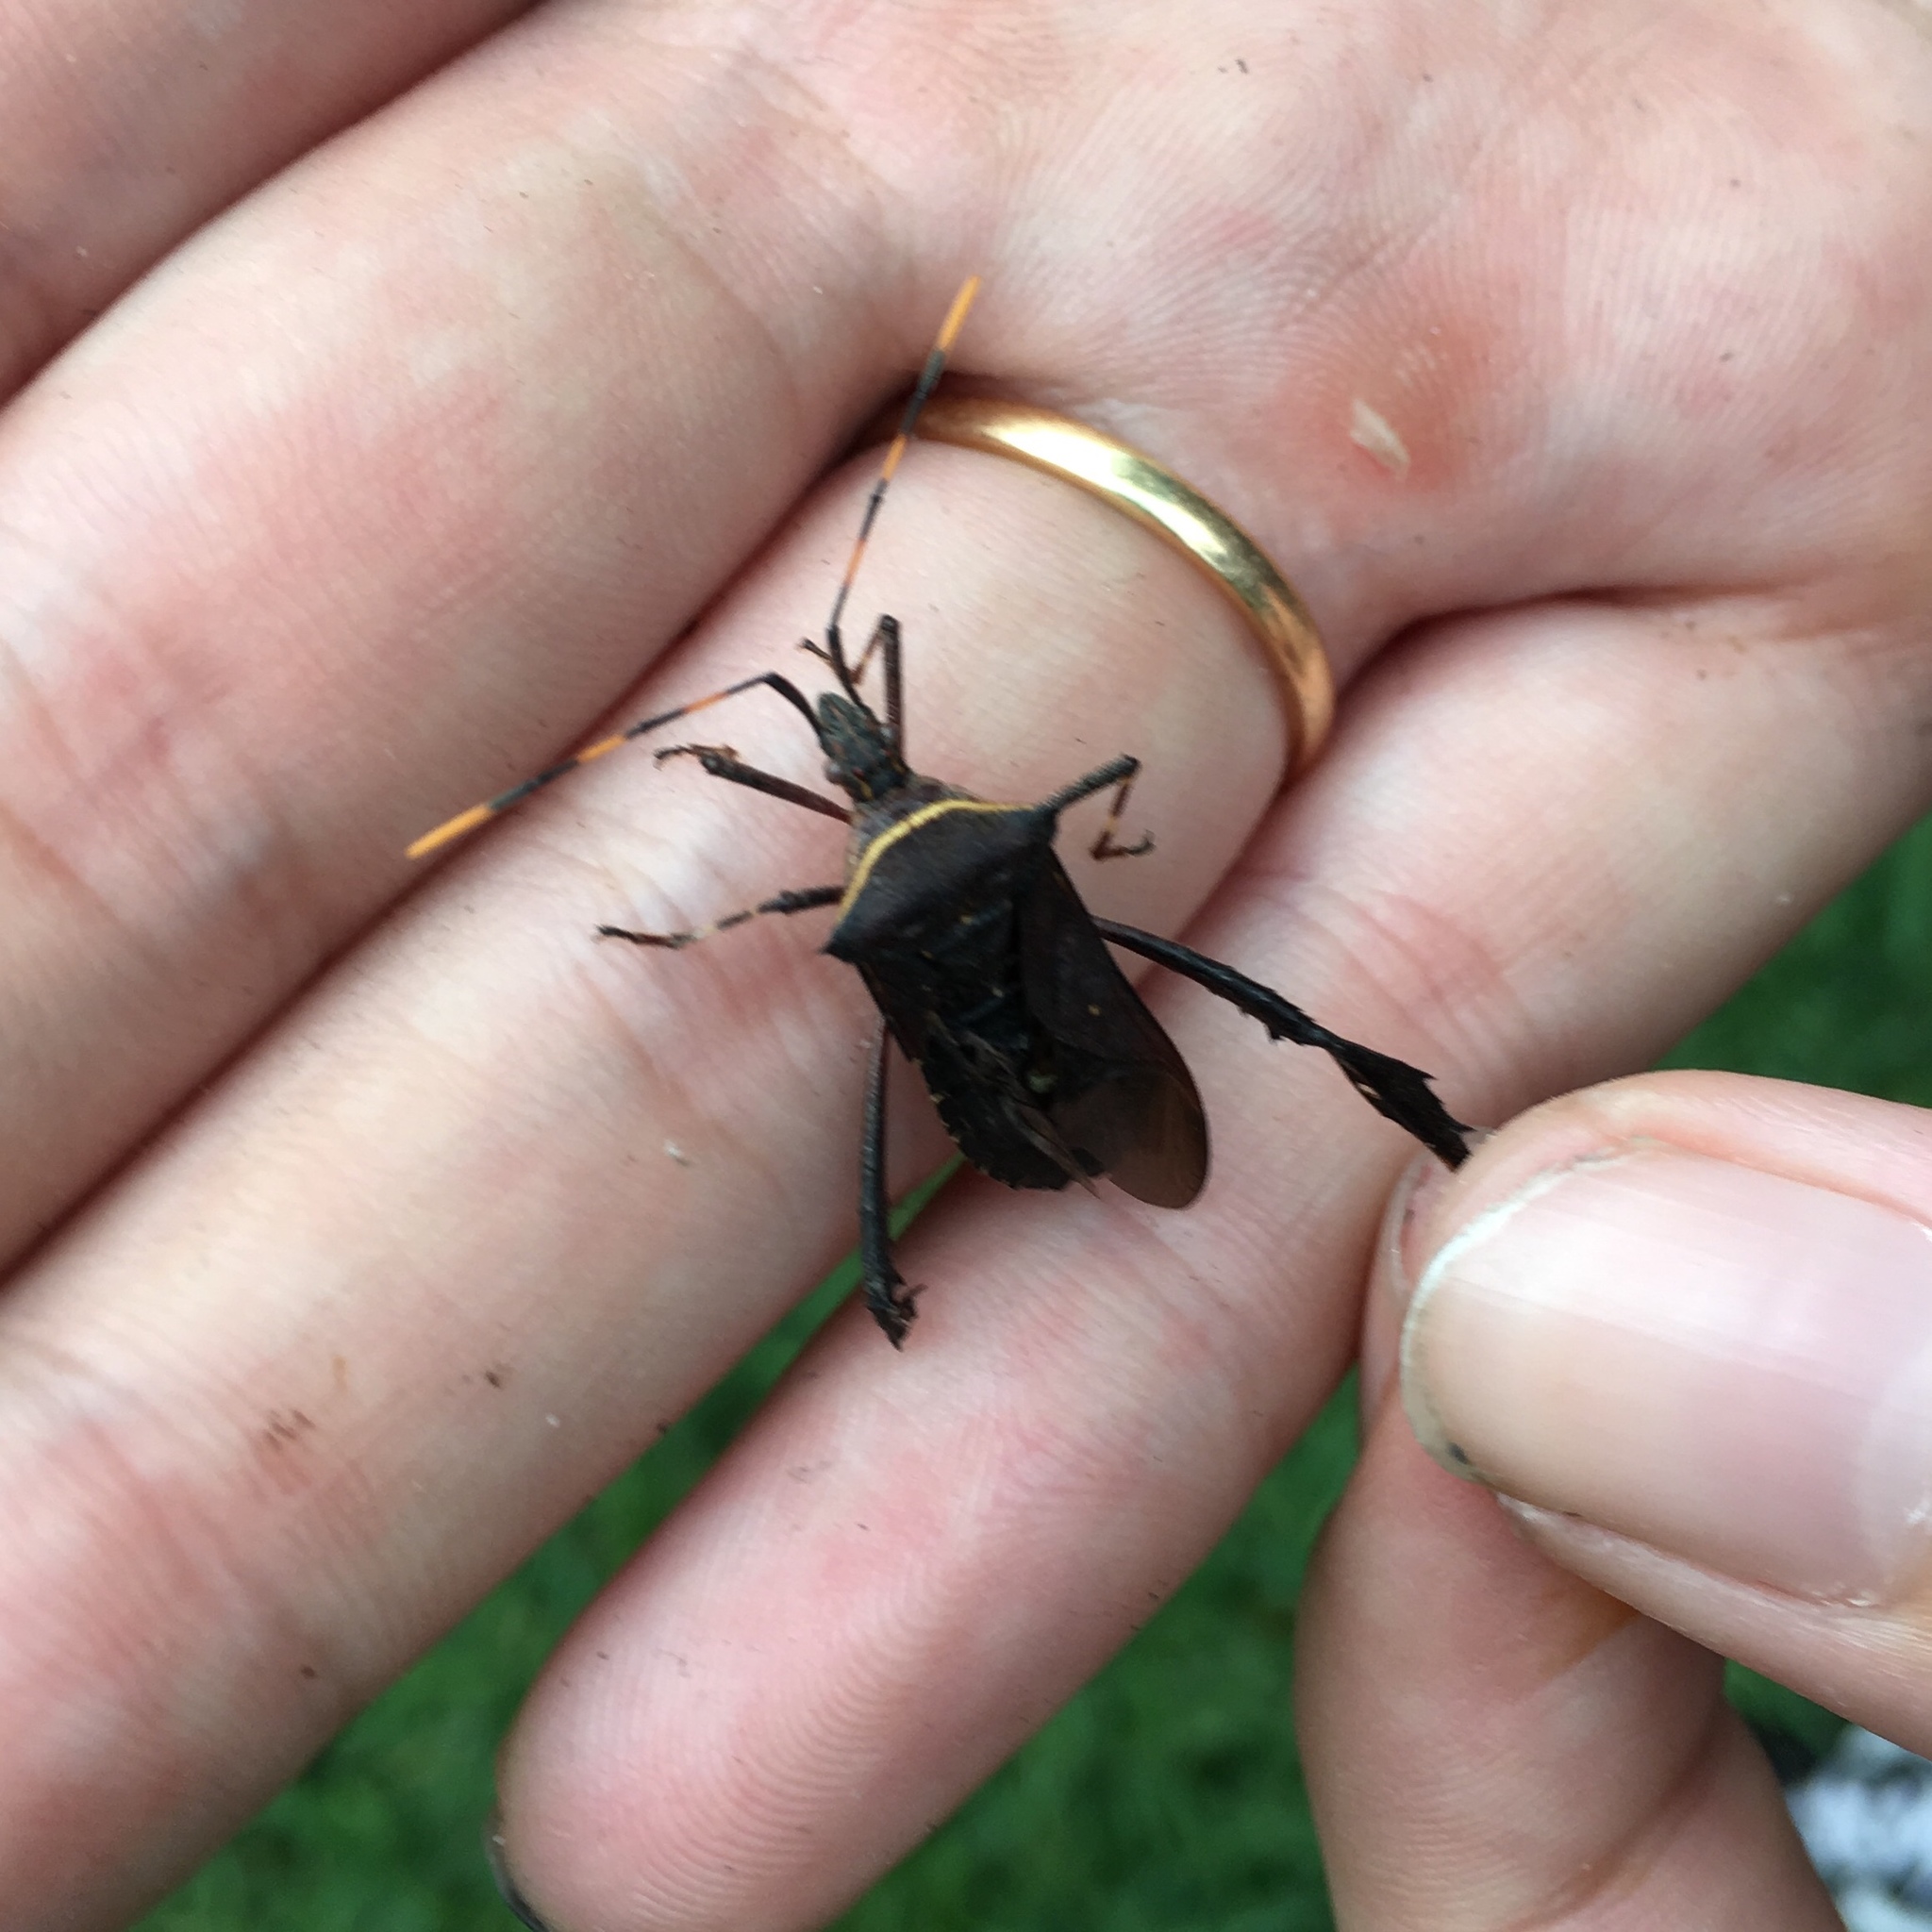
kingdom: Animalia
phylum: Arthropoda
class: Insecta
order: Hemiptera
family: Coreidae
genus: Leptoglossus
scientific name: Leptoglossus gonagra
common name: Citron bug
